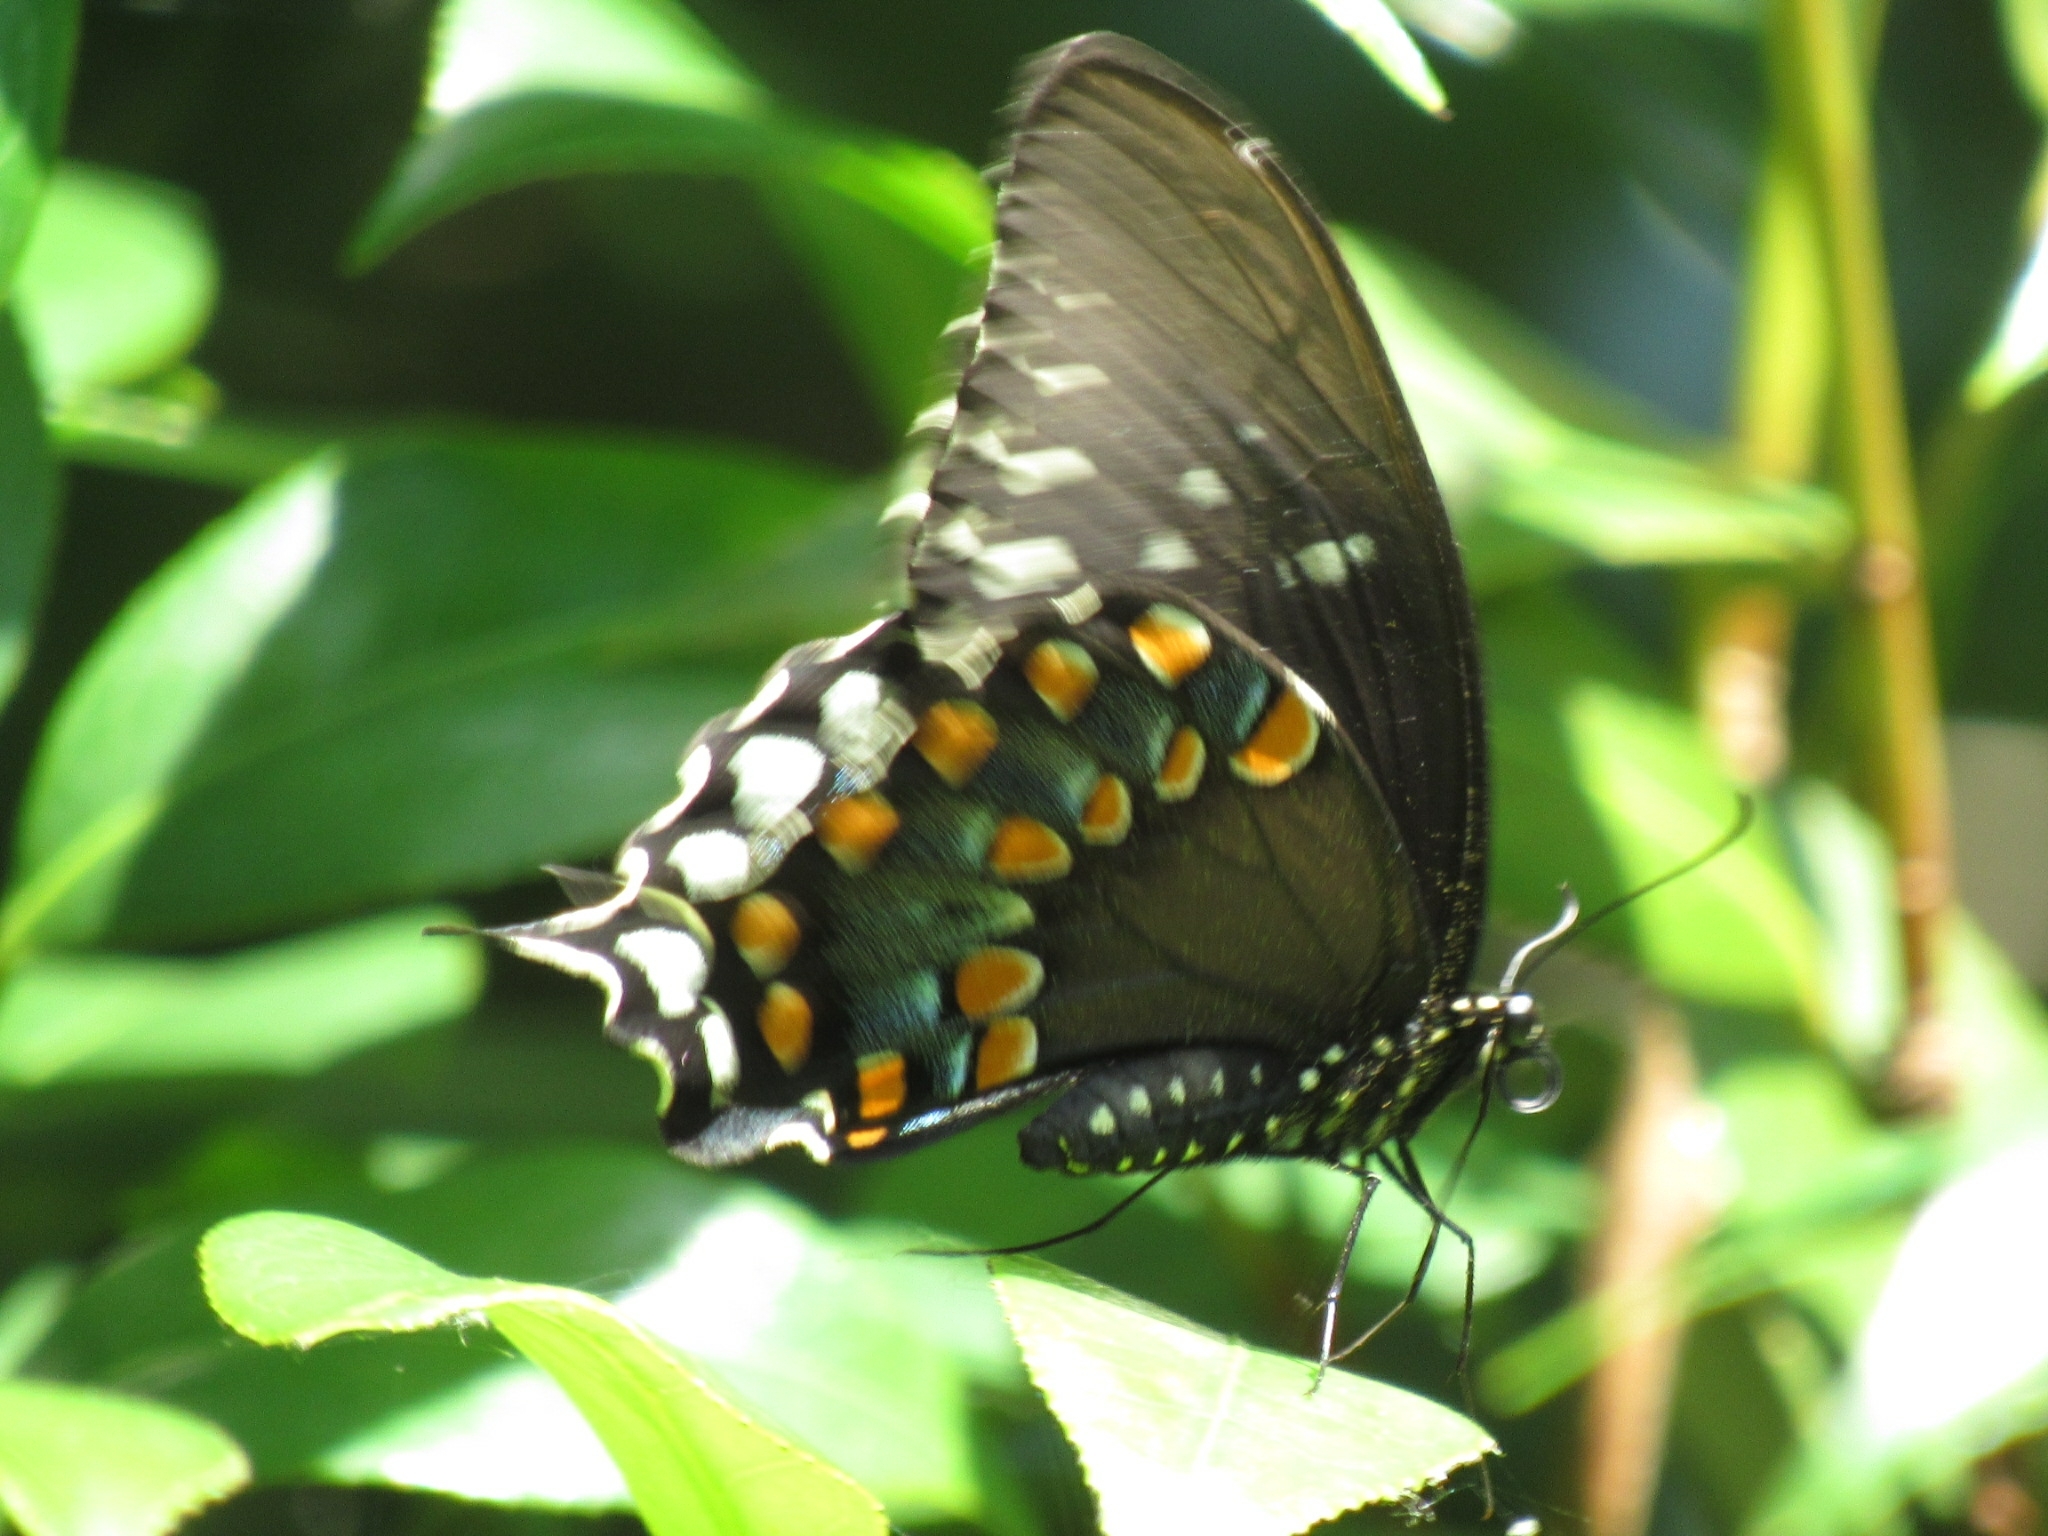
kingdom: Animalia
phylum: Arthropoda
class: Insecta
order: Lepidoptera
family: Papilionidae
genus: Papilio
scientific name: Papilio troilus
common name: Spicebush swallowtail
